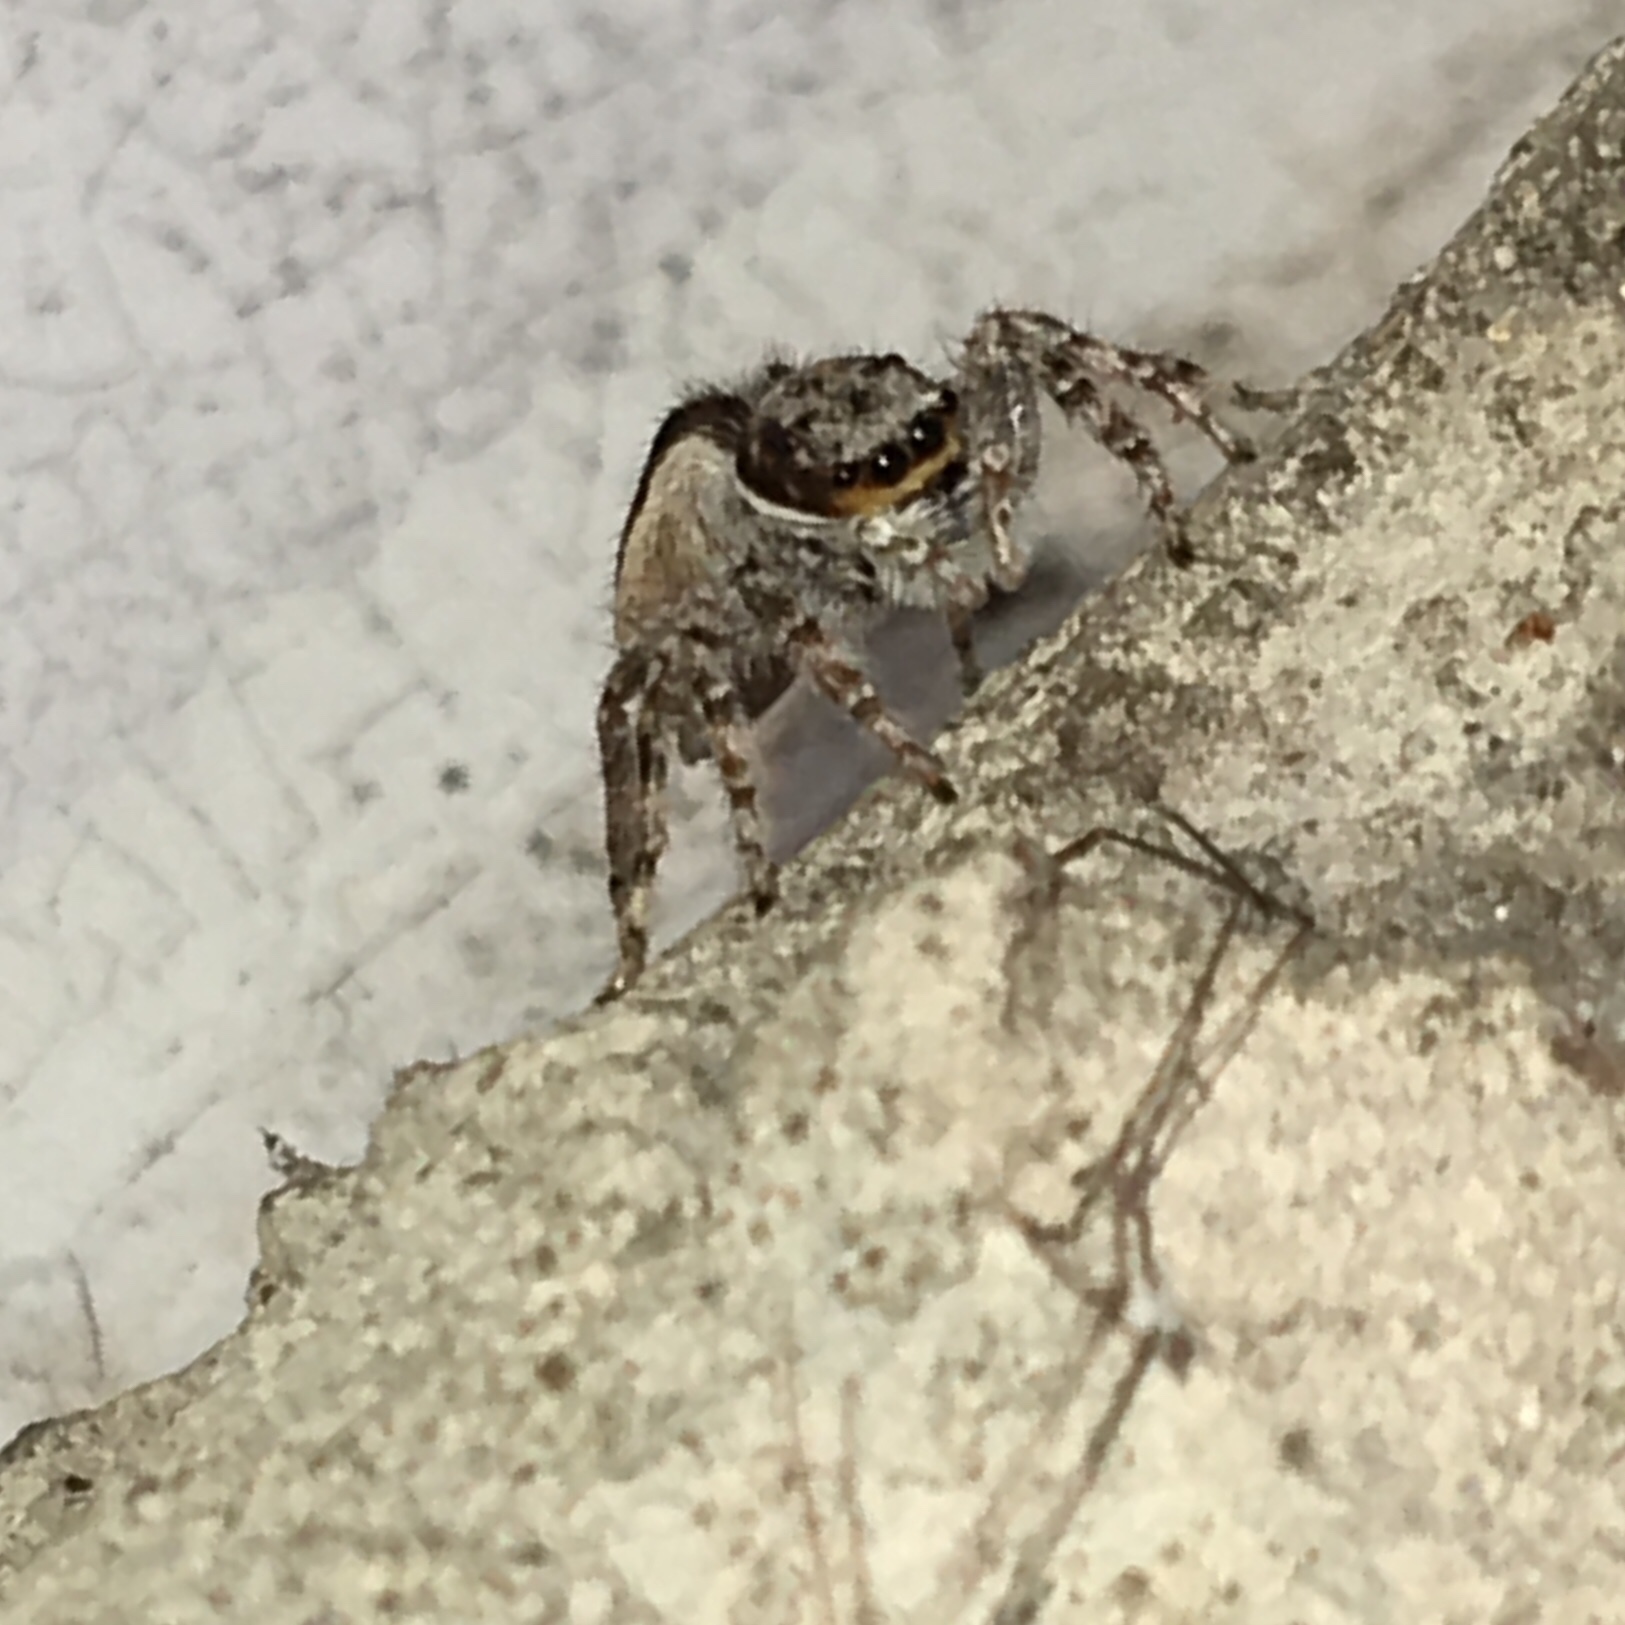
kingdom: Animalia
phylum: Arthropoda
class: Arachnida
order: Araneae
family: Salticidae
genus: Menemerus
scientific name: Menemerus bivittatus
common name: Gray wall jumper
